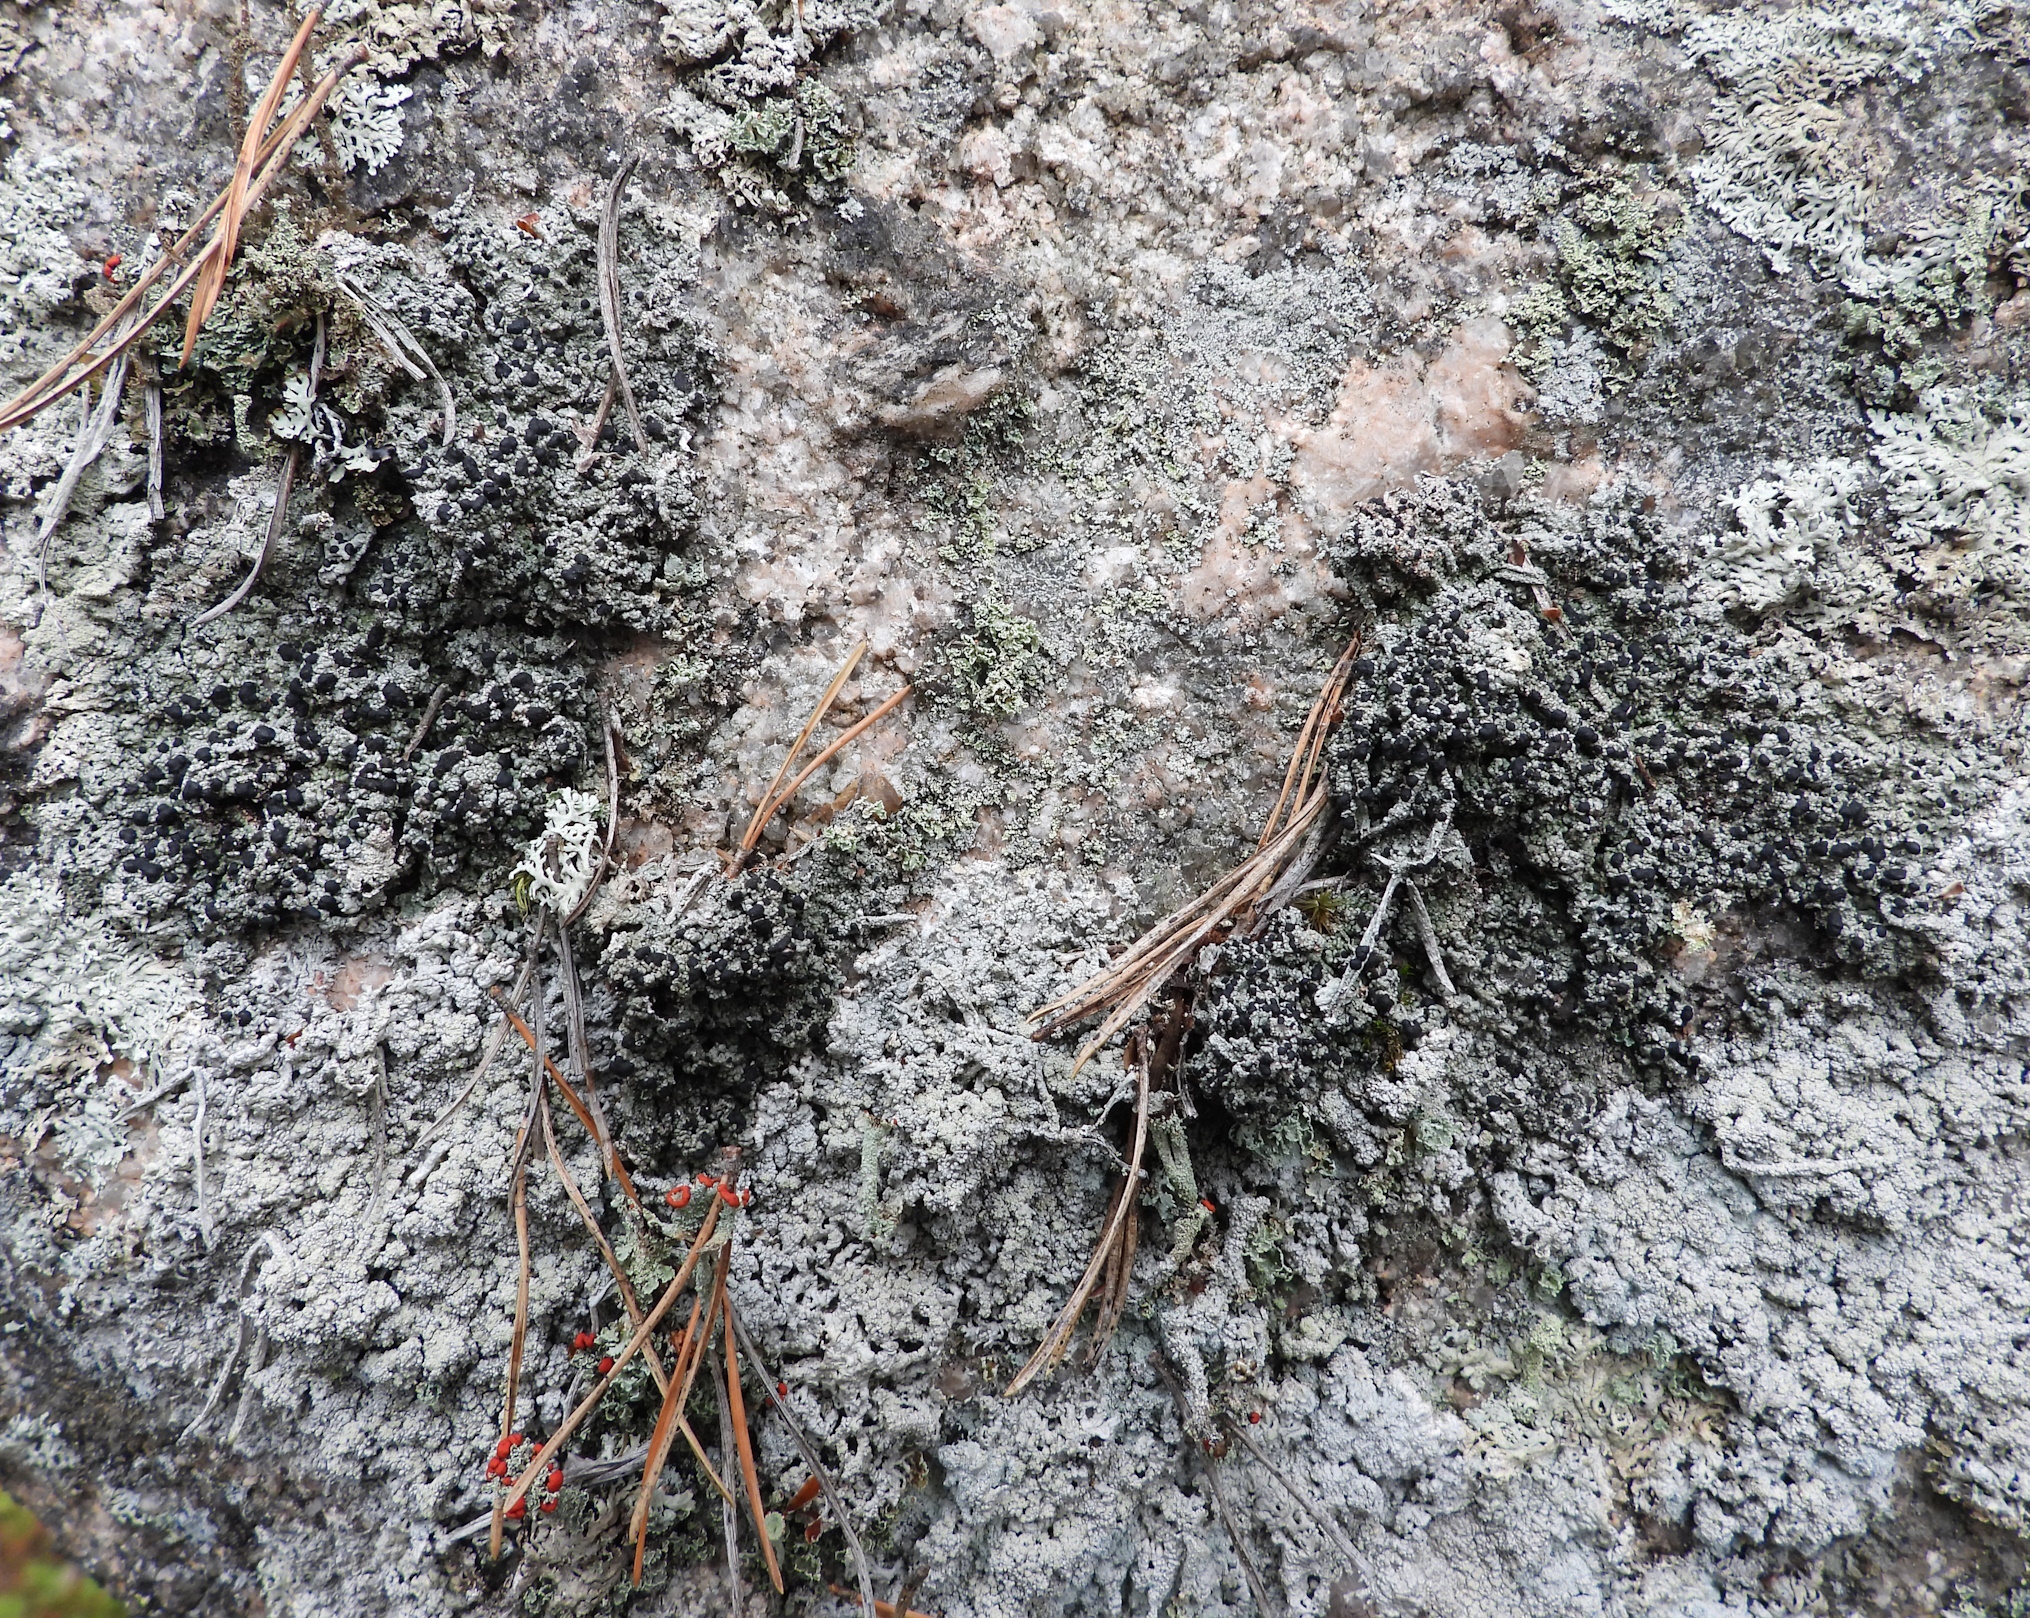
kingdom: Fungi
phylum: Ascomycota
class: Lecanoromycetes
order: Lecanorales
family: Tephromelataceae
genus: Mycoblastus
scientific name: Mycoblastus sanguinarius
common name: Bloody-heart lichen
